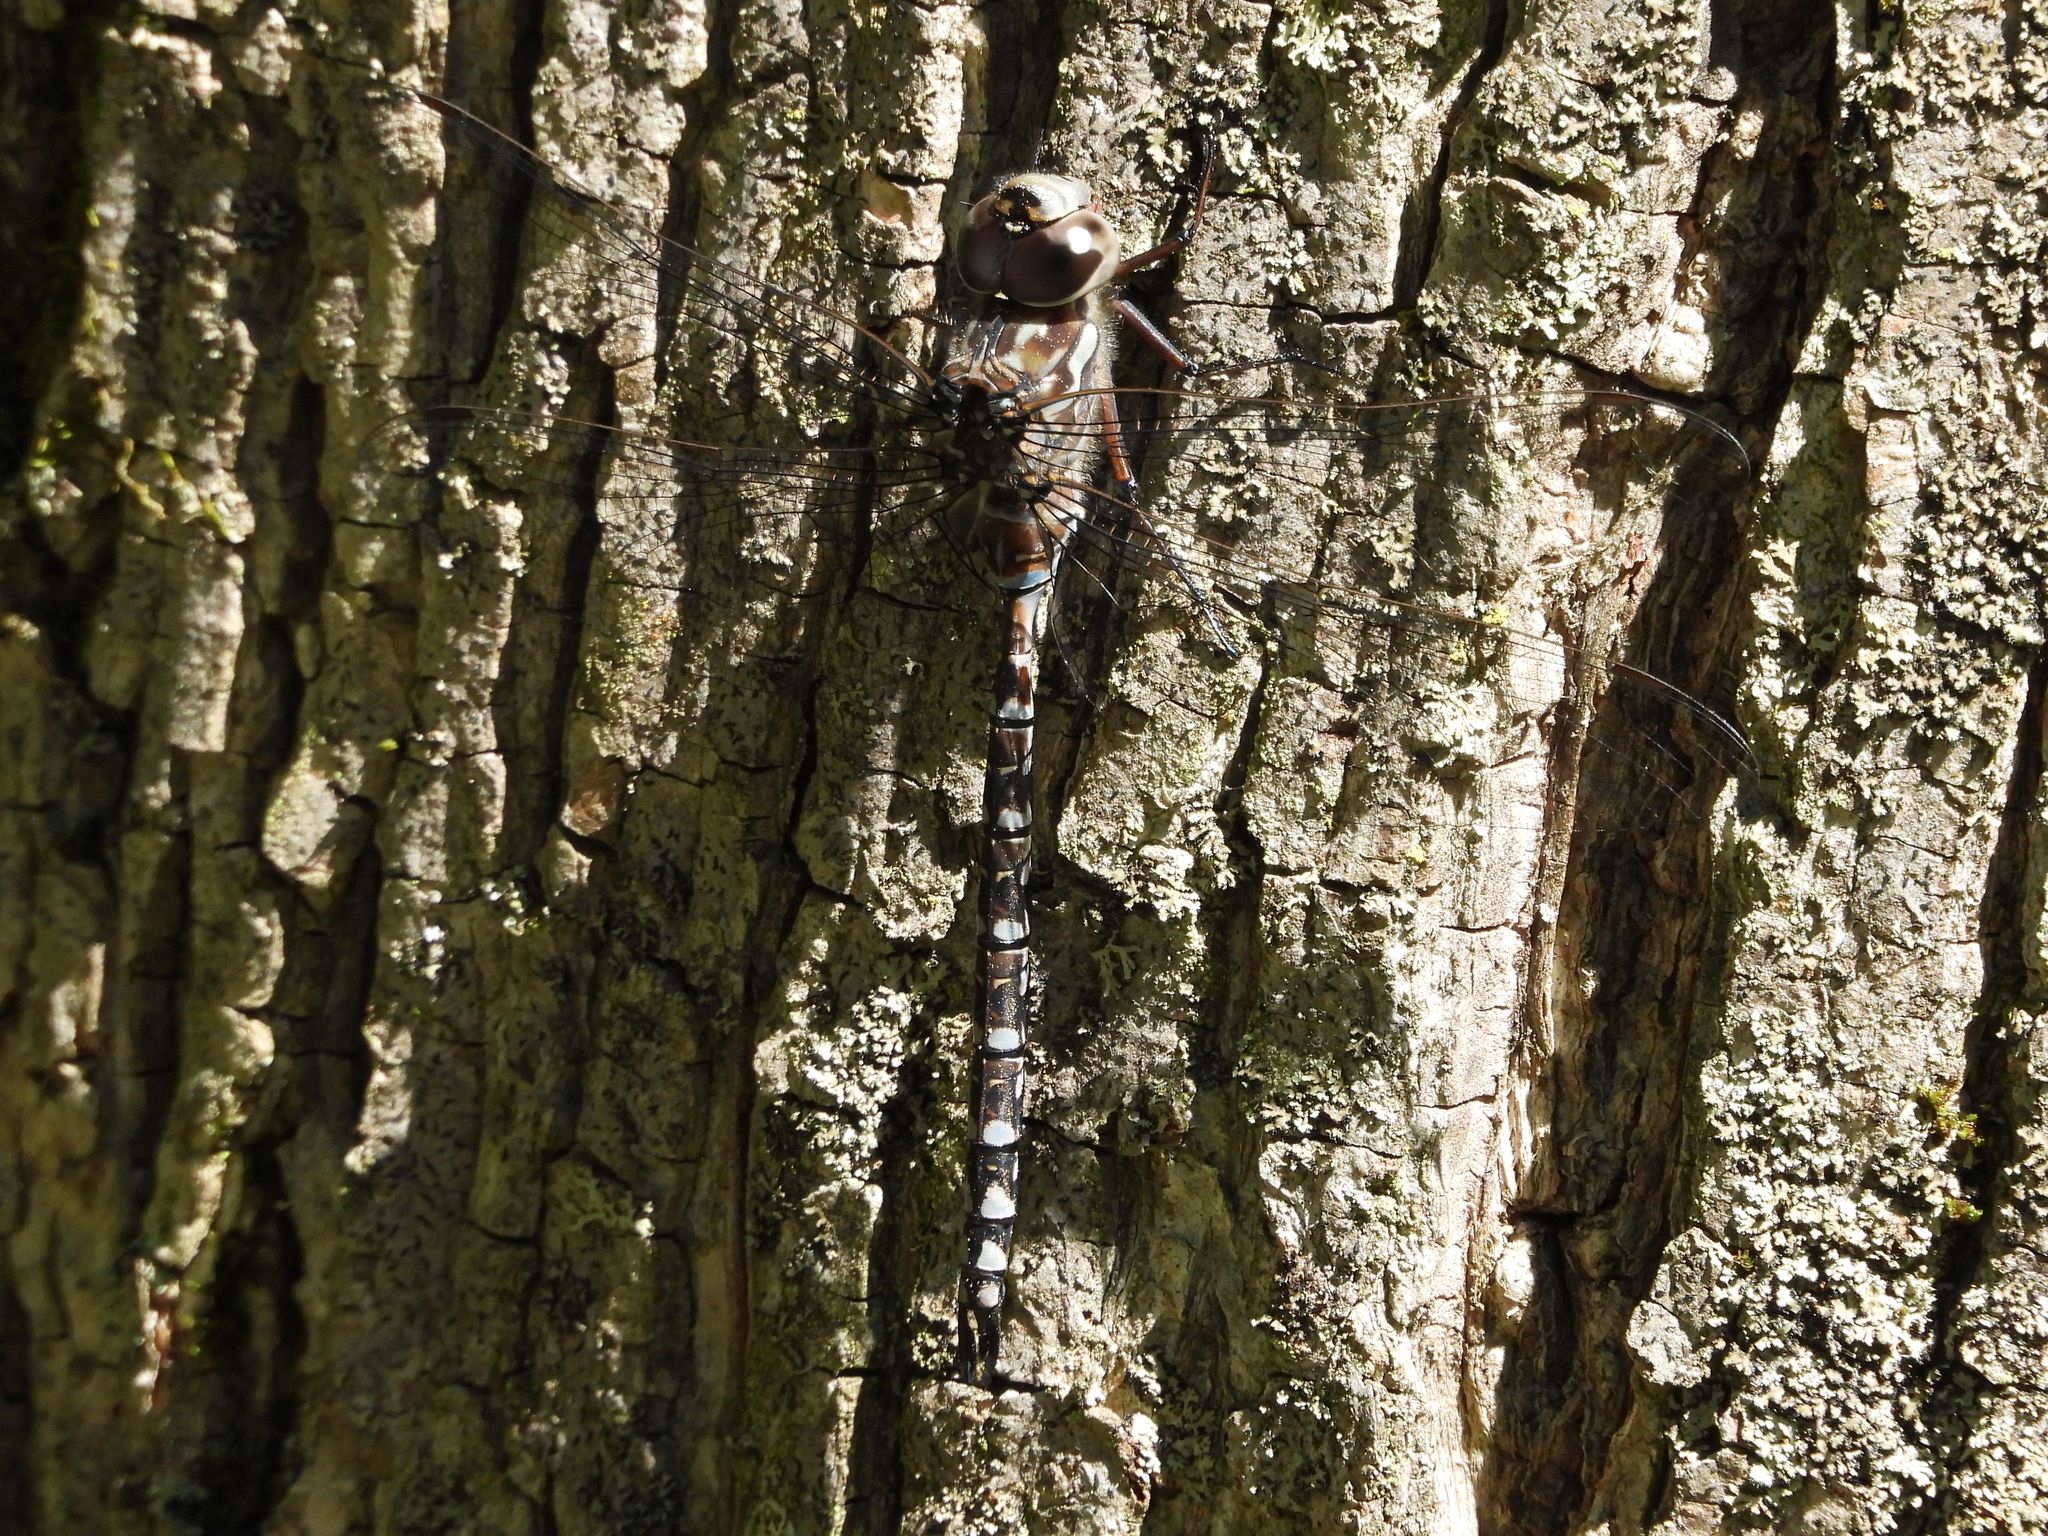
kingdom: Animalia
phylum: Arthropoda
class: Insecta
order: Odonata
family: Aeshnidae
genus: Aeshna
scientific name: Aeshna canadensis
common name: Canada darner
